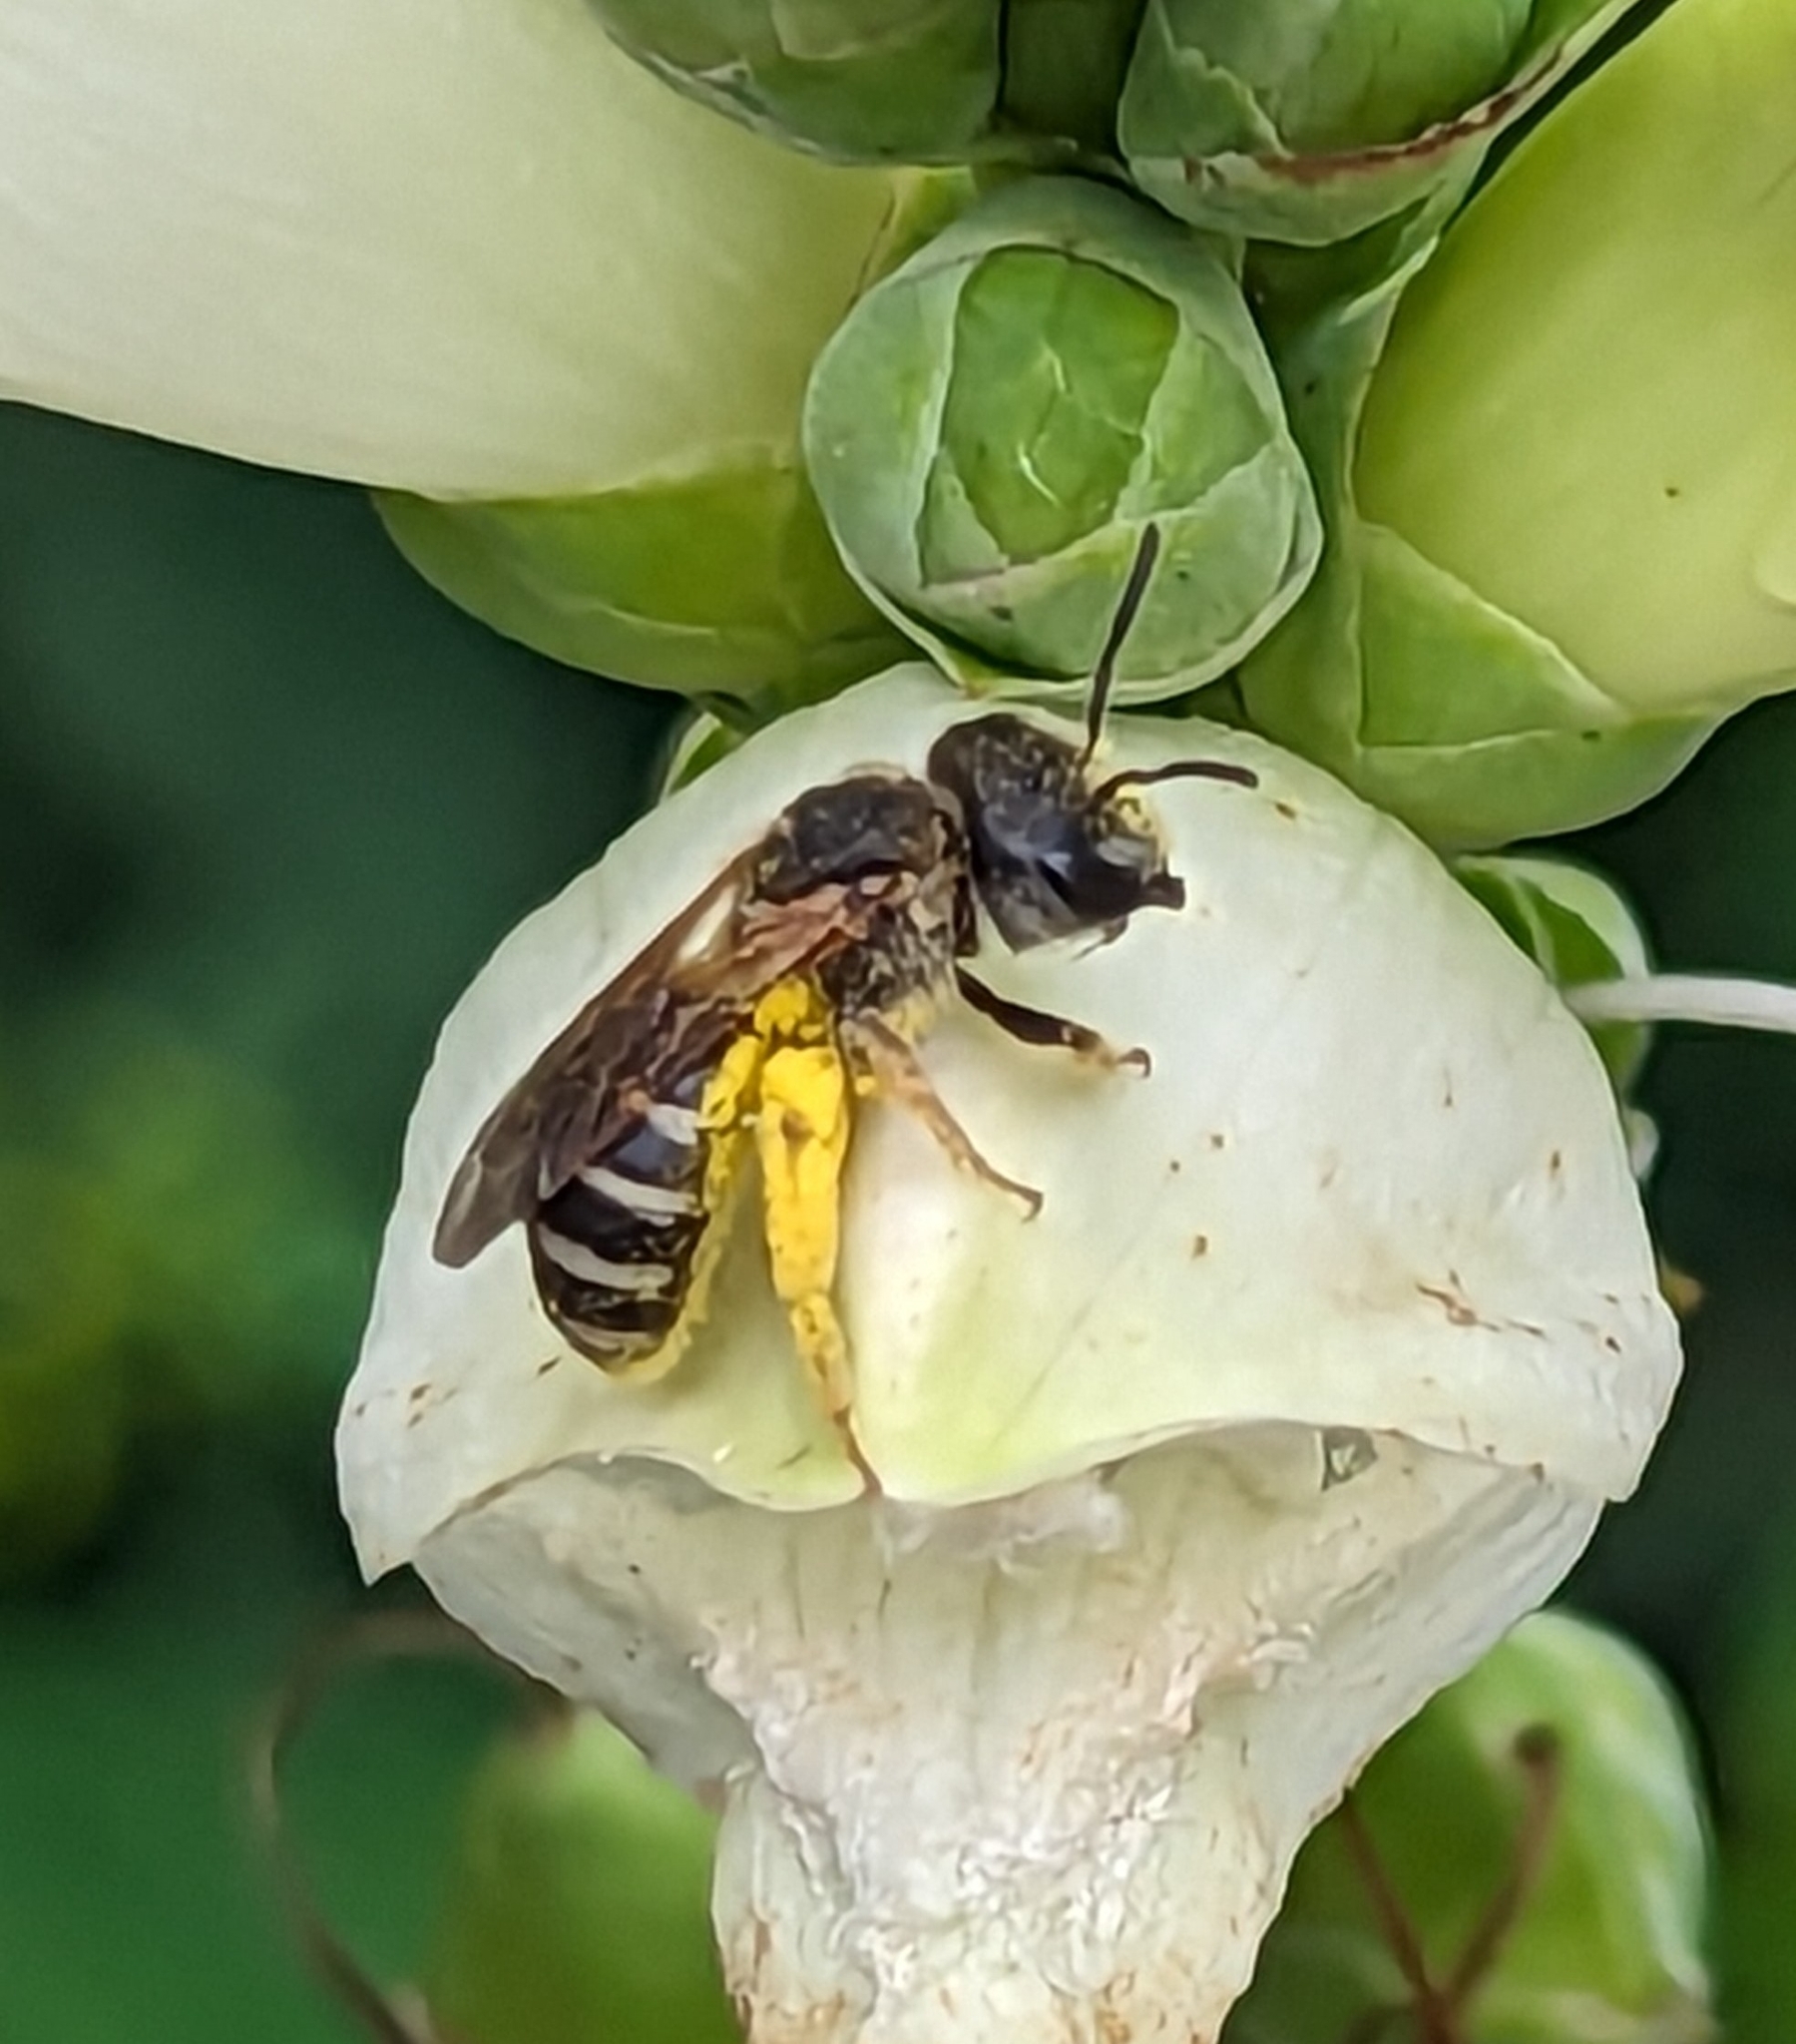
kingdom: Animalia
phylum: Arthropoda
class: Insecta
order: Hymenoptera
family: Halictidae
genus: Halictus
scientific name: Halictus ligatus
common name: Ligated furrow bee
